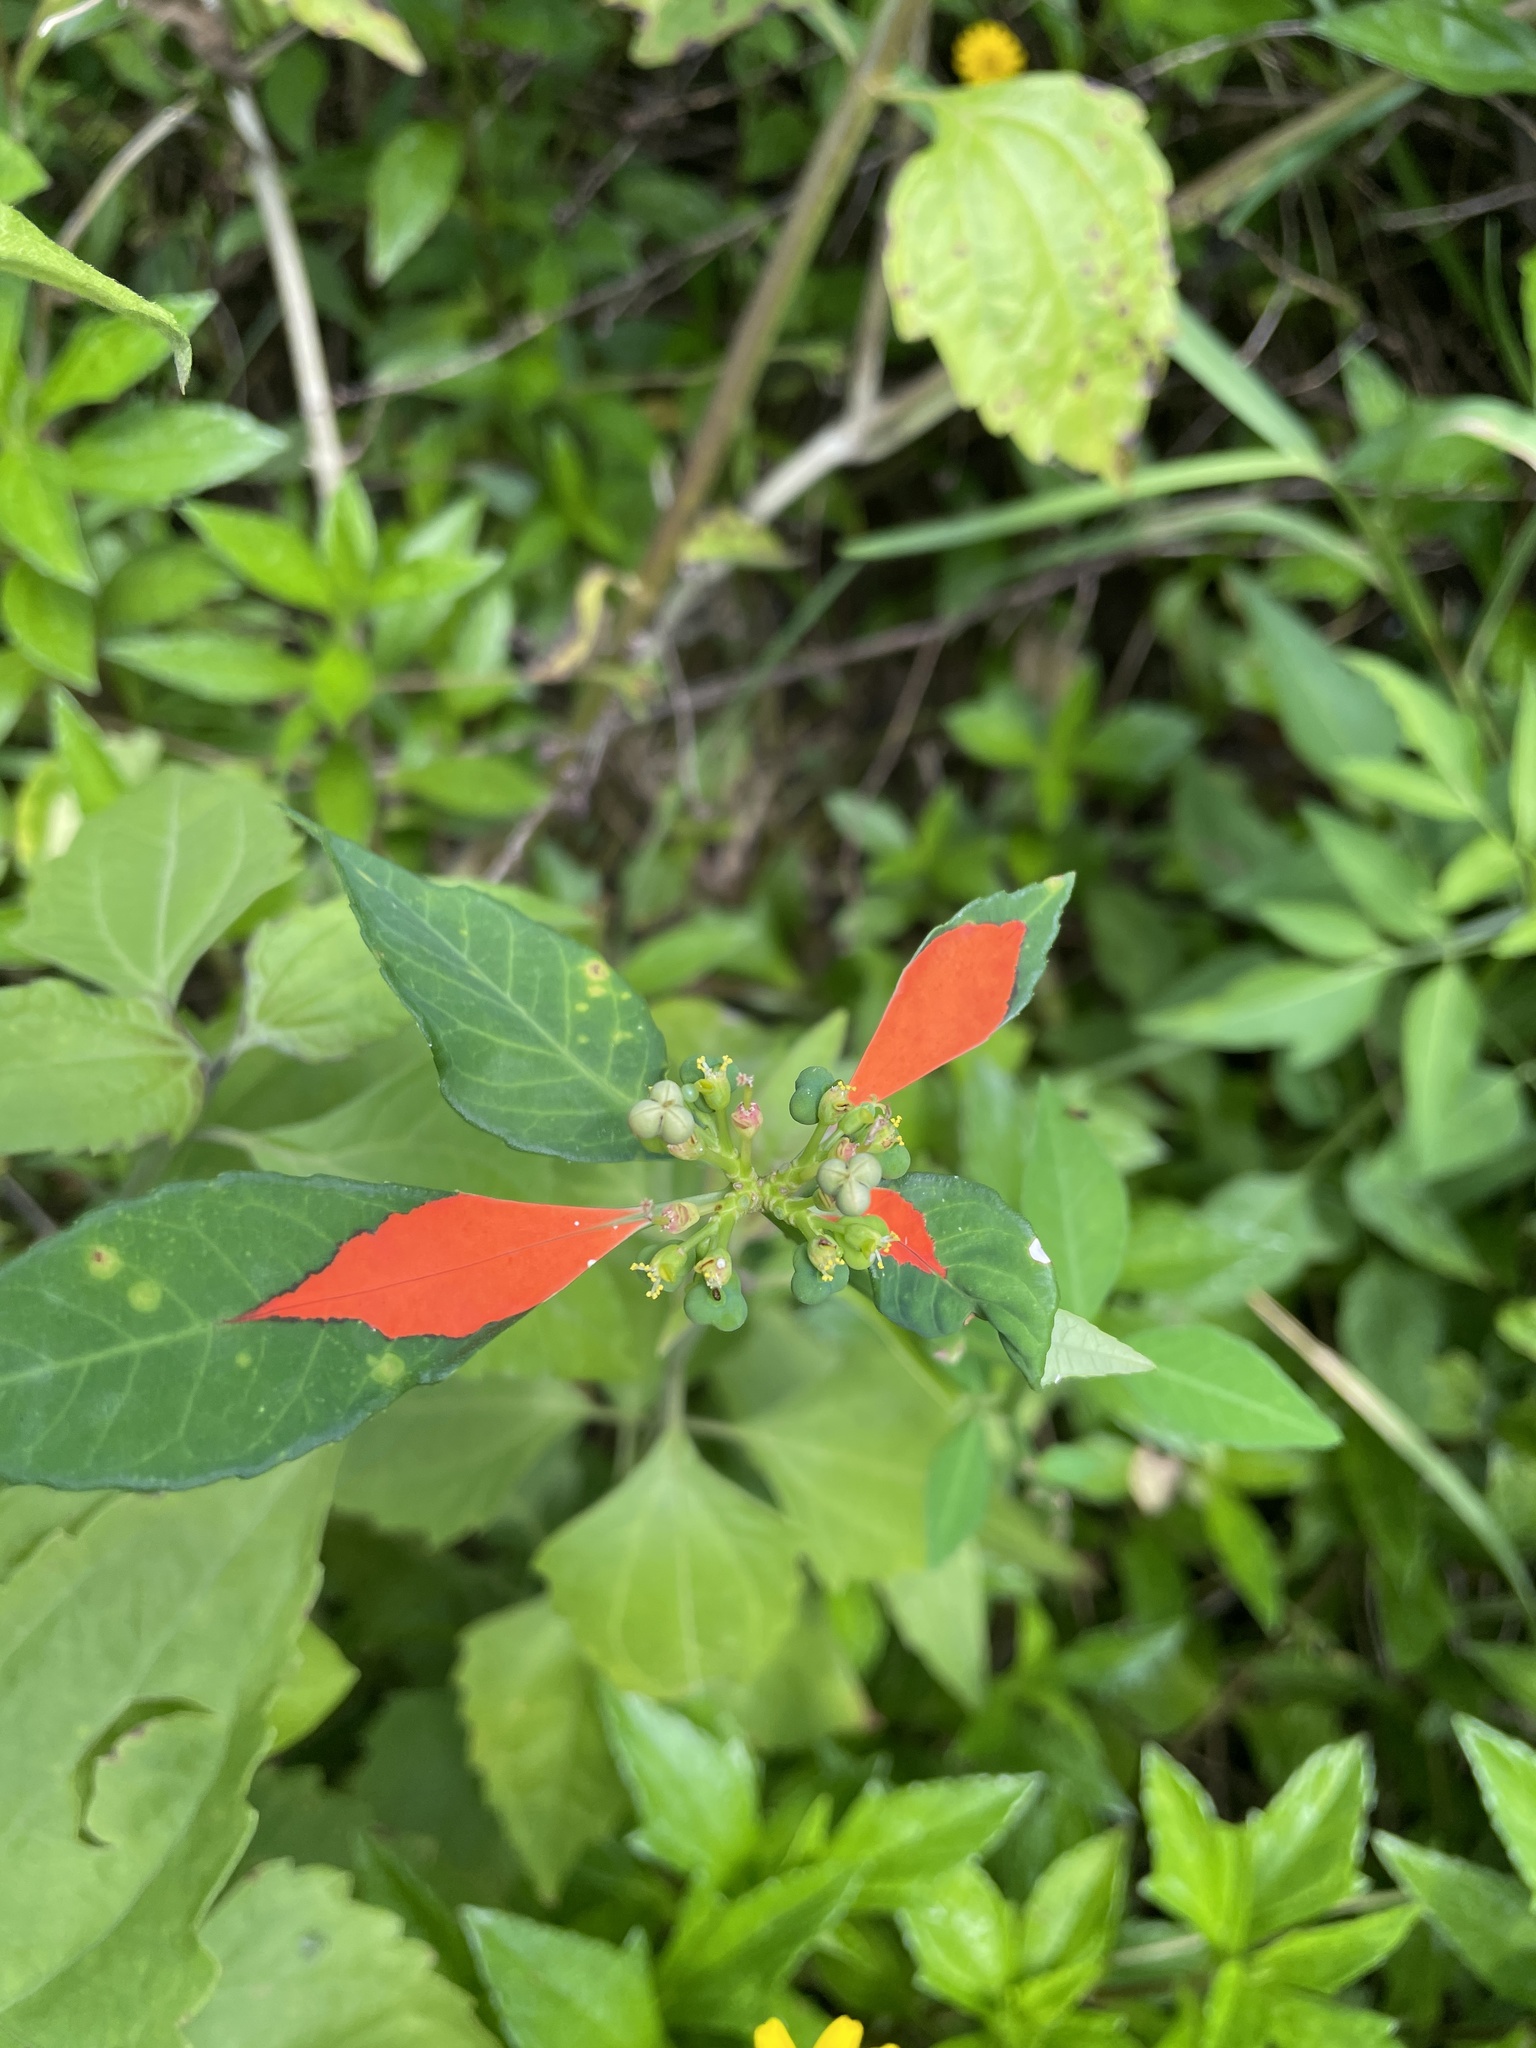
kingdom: Plantae
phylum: Tracheophyta
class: Magnoliopsida
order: Malpighiales
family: Euphorbiaceae
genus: Euphorbia
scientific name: Euphorbia heterophylla
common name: Mexican fireplant
